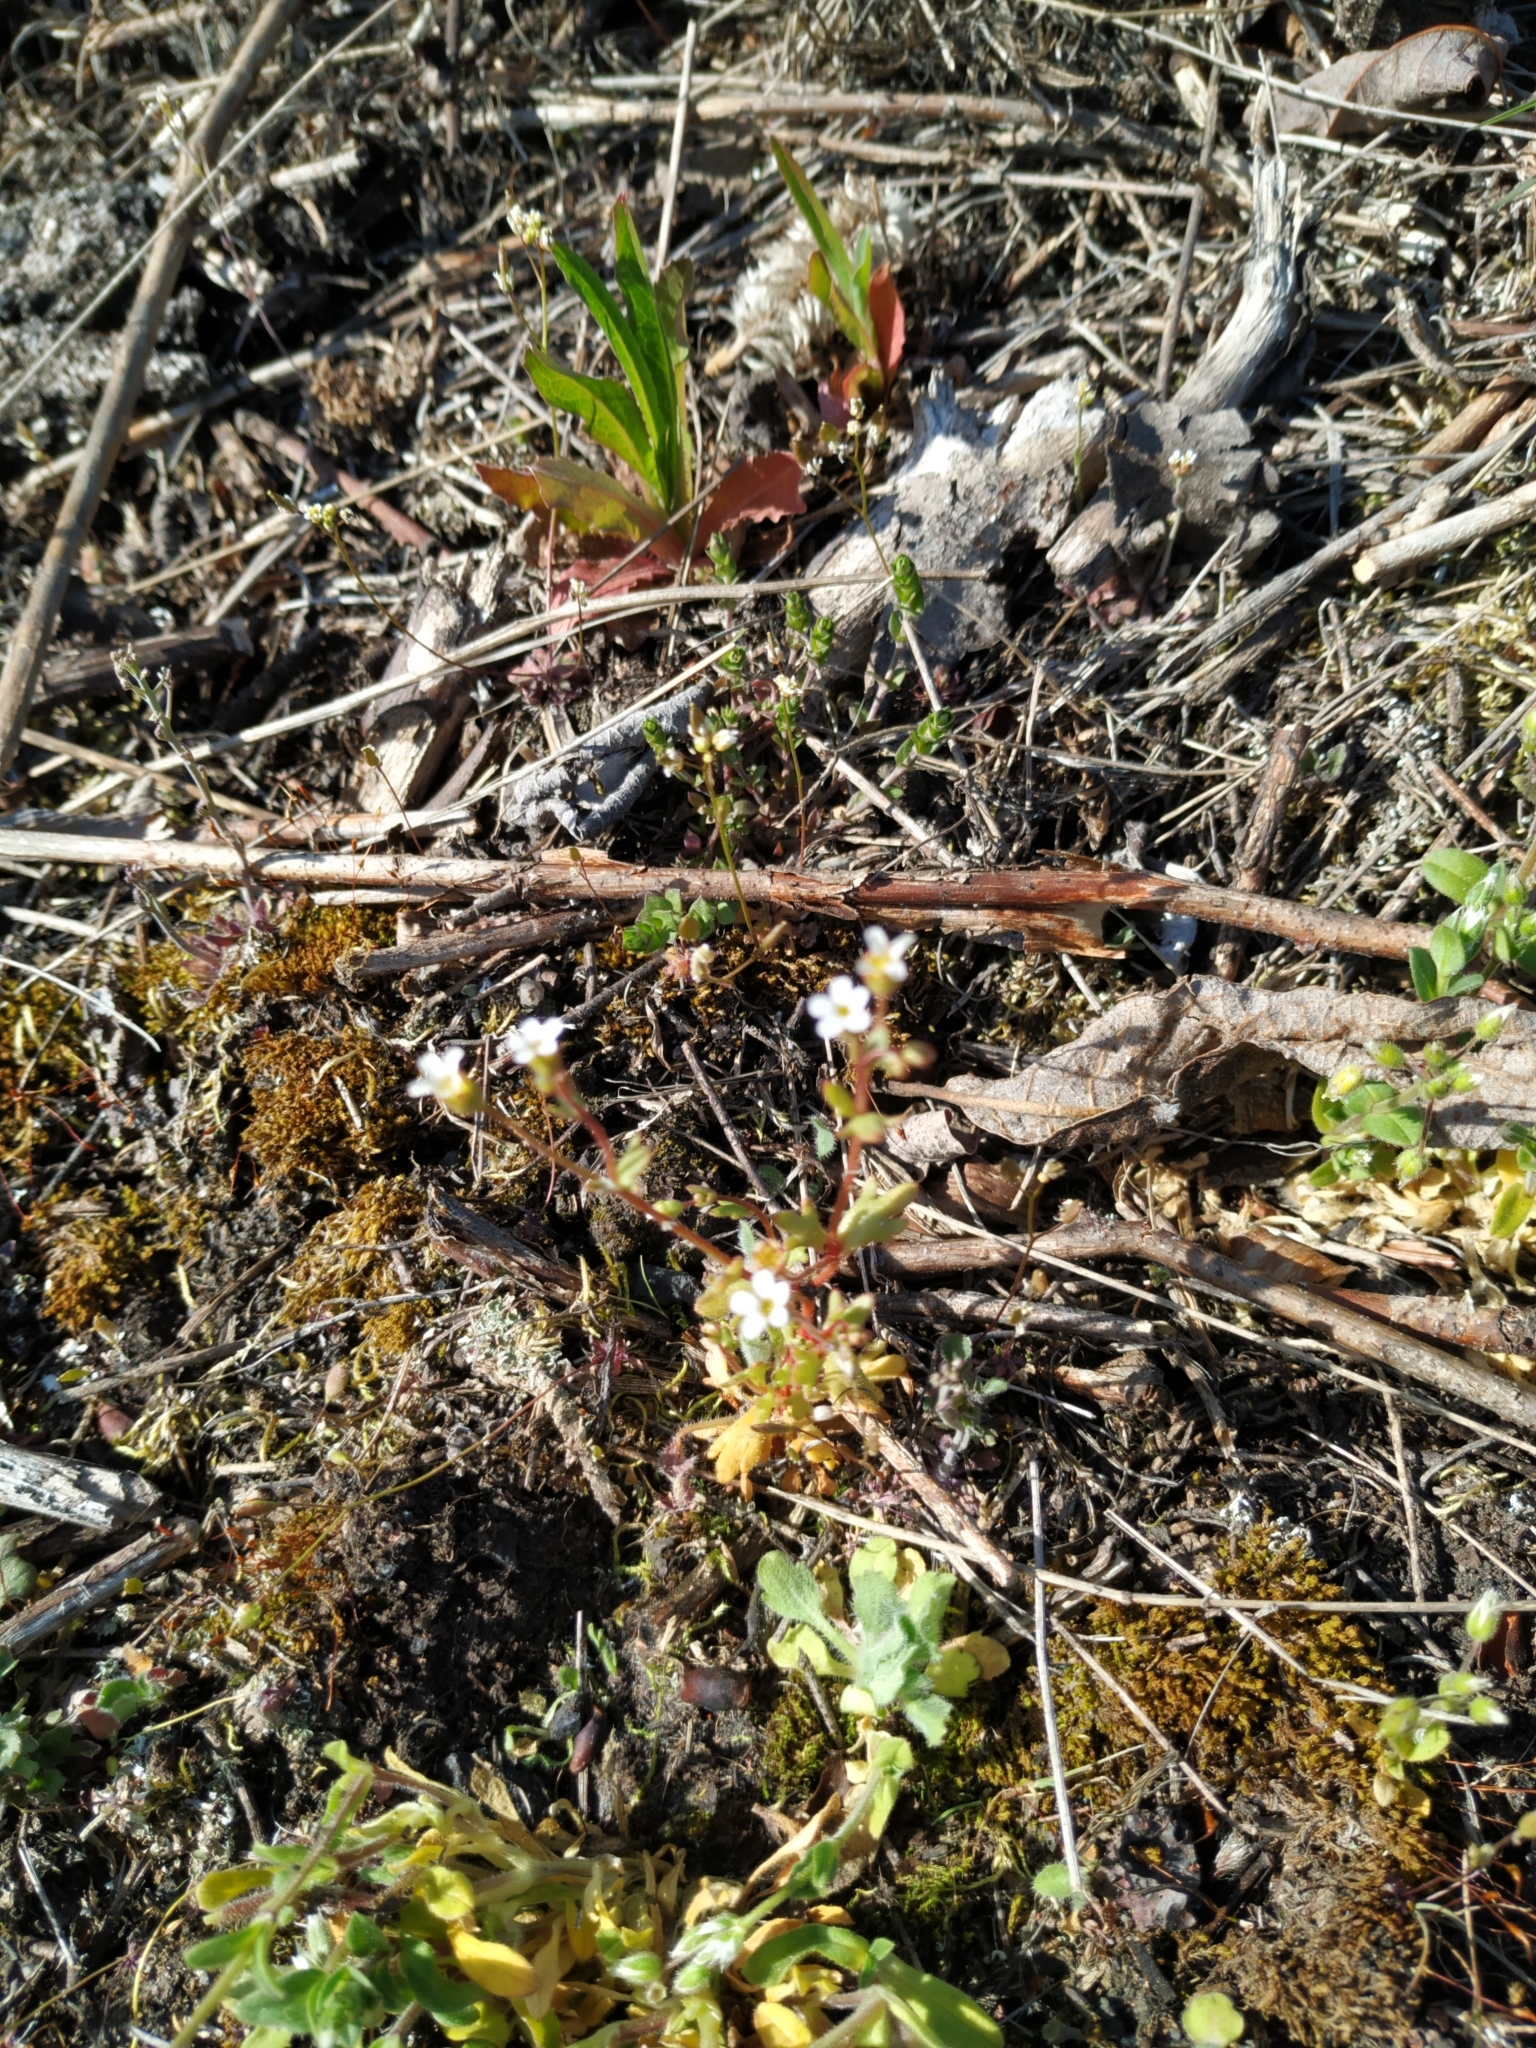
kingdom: Plantae
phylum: Tracheophyta
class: Magnoliopsida
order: Saxifragales
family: Saxifragaceae
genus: Saxifraga
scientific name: Saxifraga tridactylites
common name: Rue-leaved saxifrage
